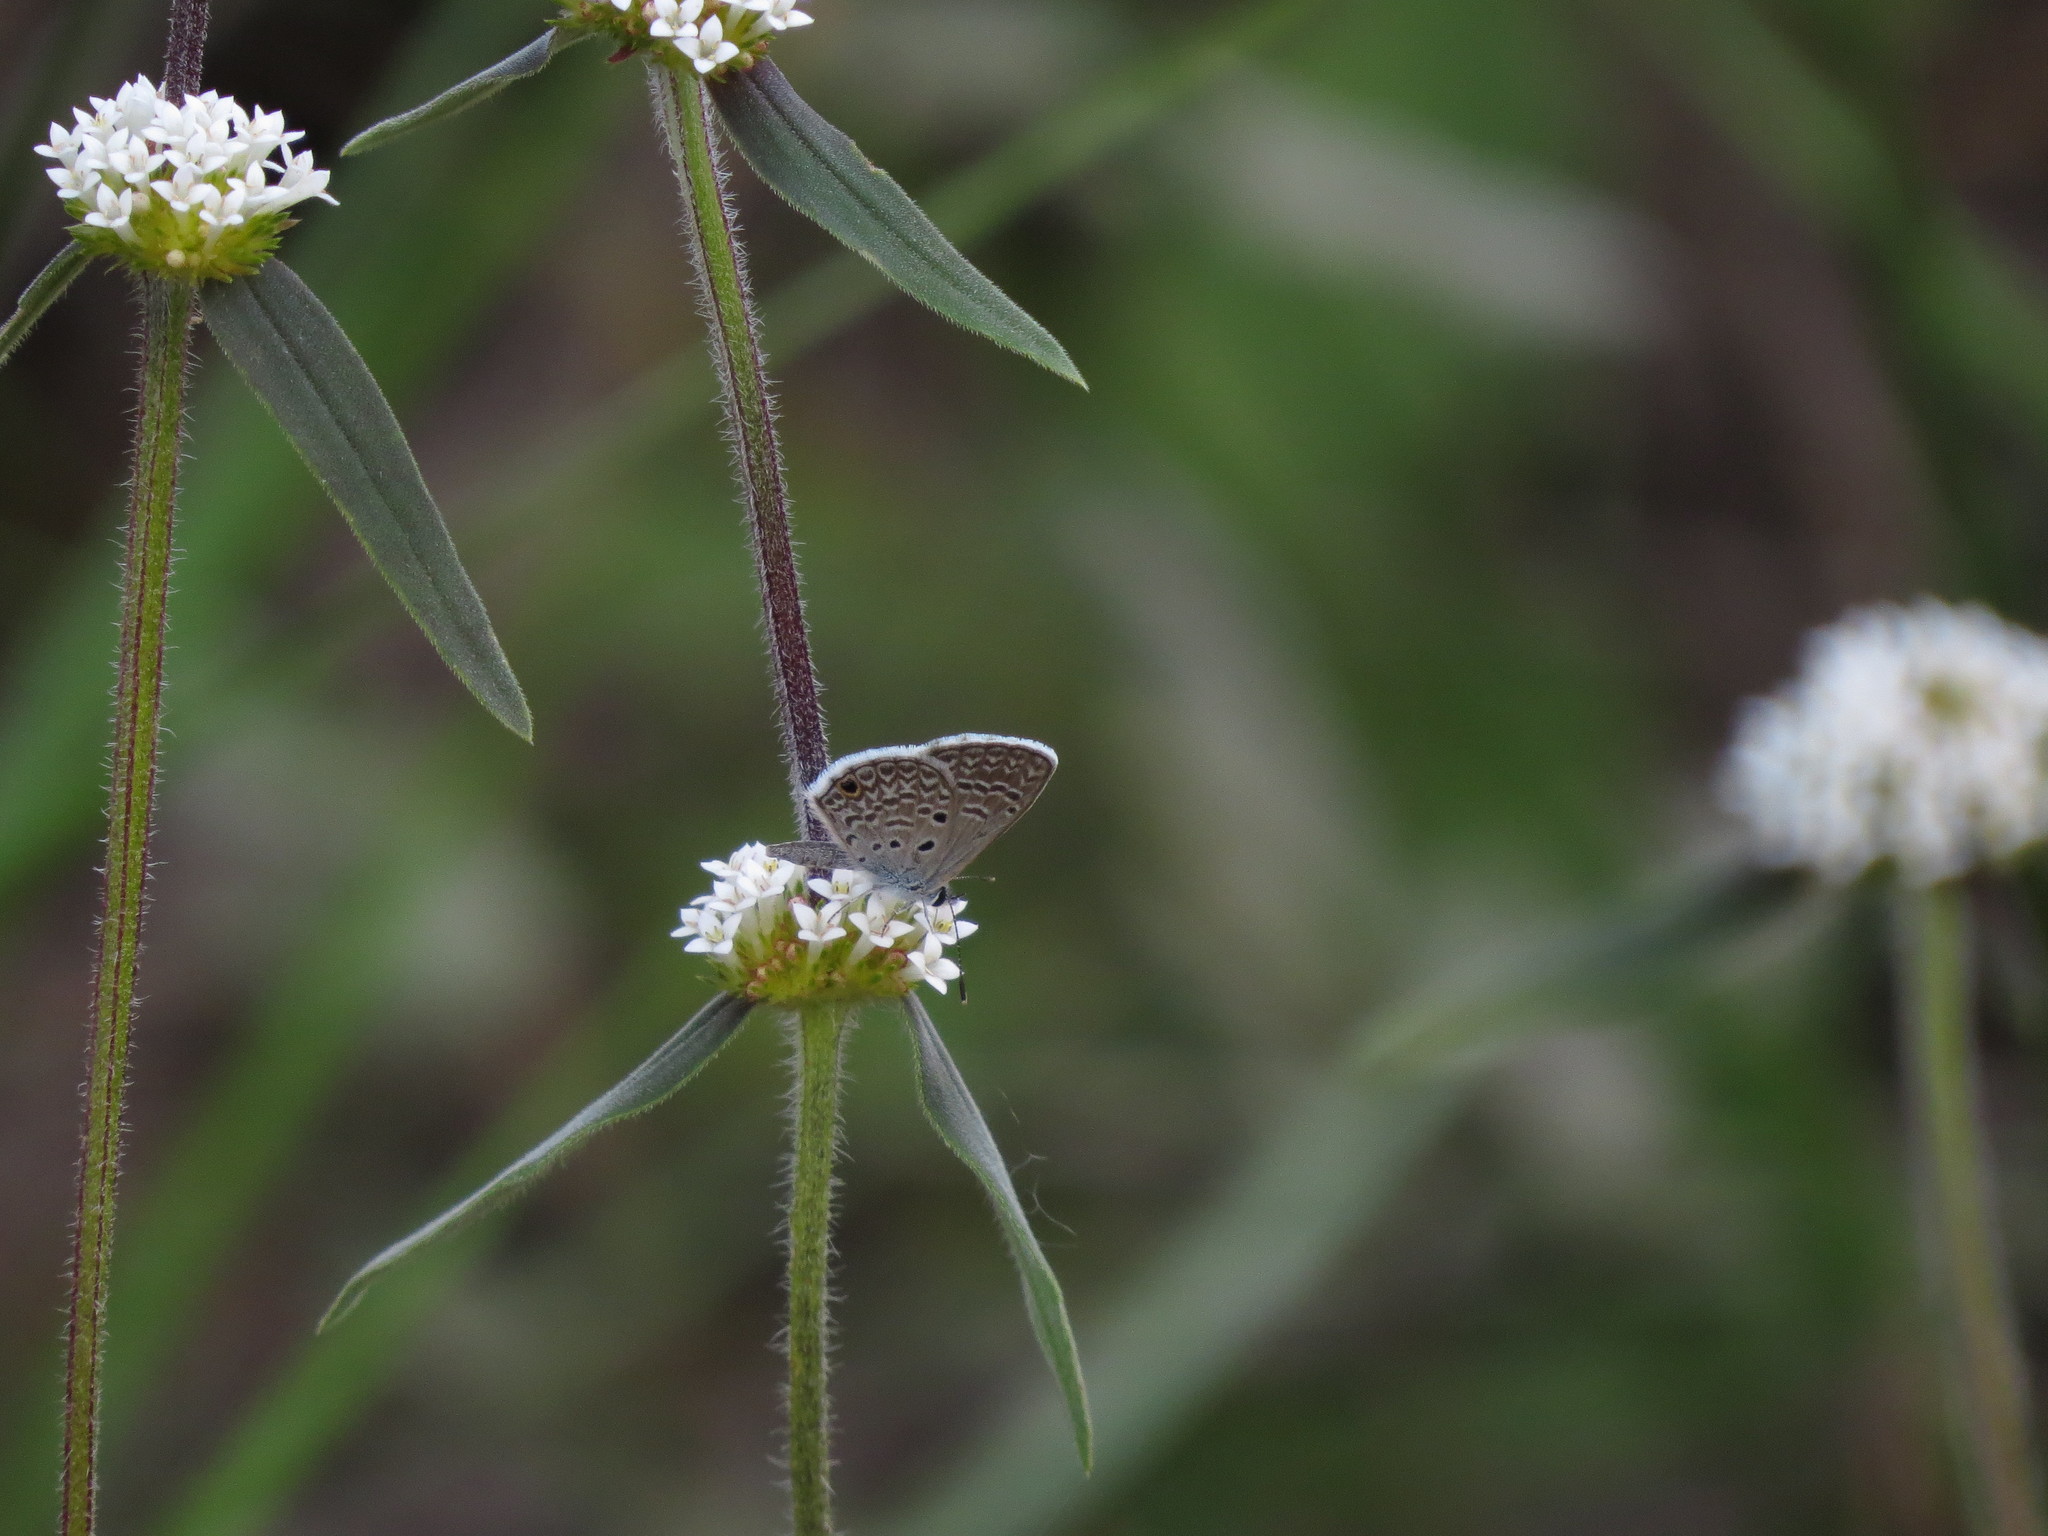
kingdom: Animalia
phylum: Arthropoda
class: Insecta
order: Lepidoptera
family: Lycaenidae
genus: Hemiargus
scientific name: Hemiargus hanno
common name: Common blue
